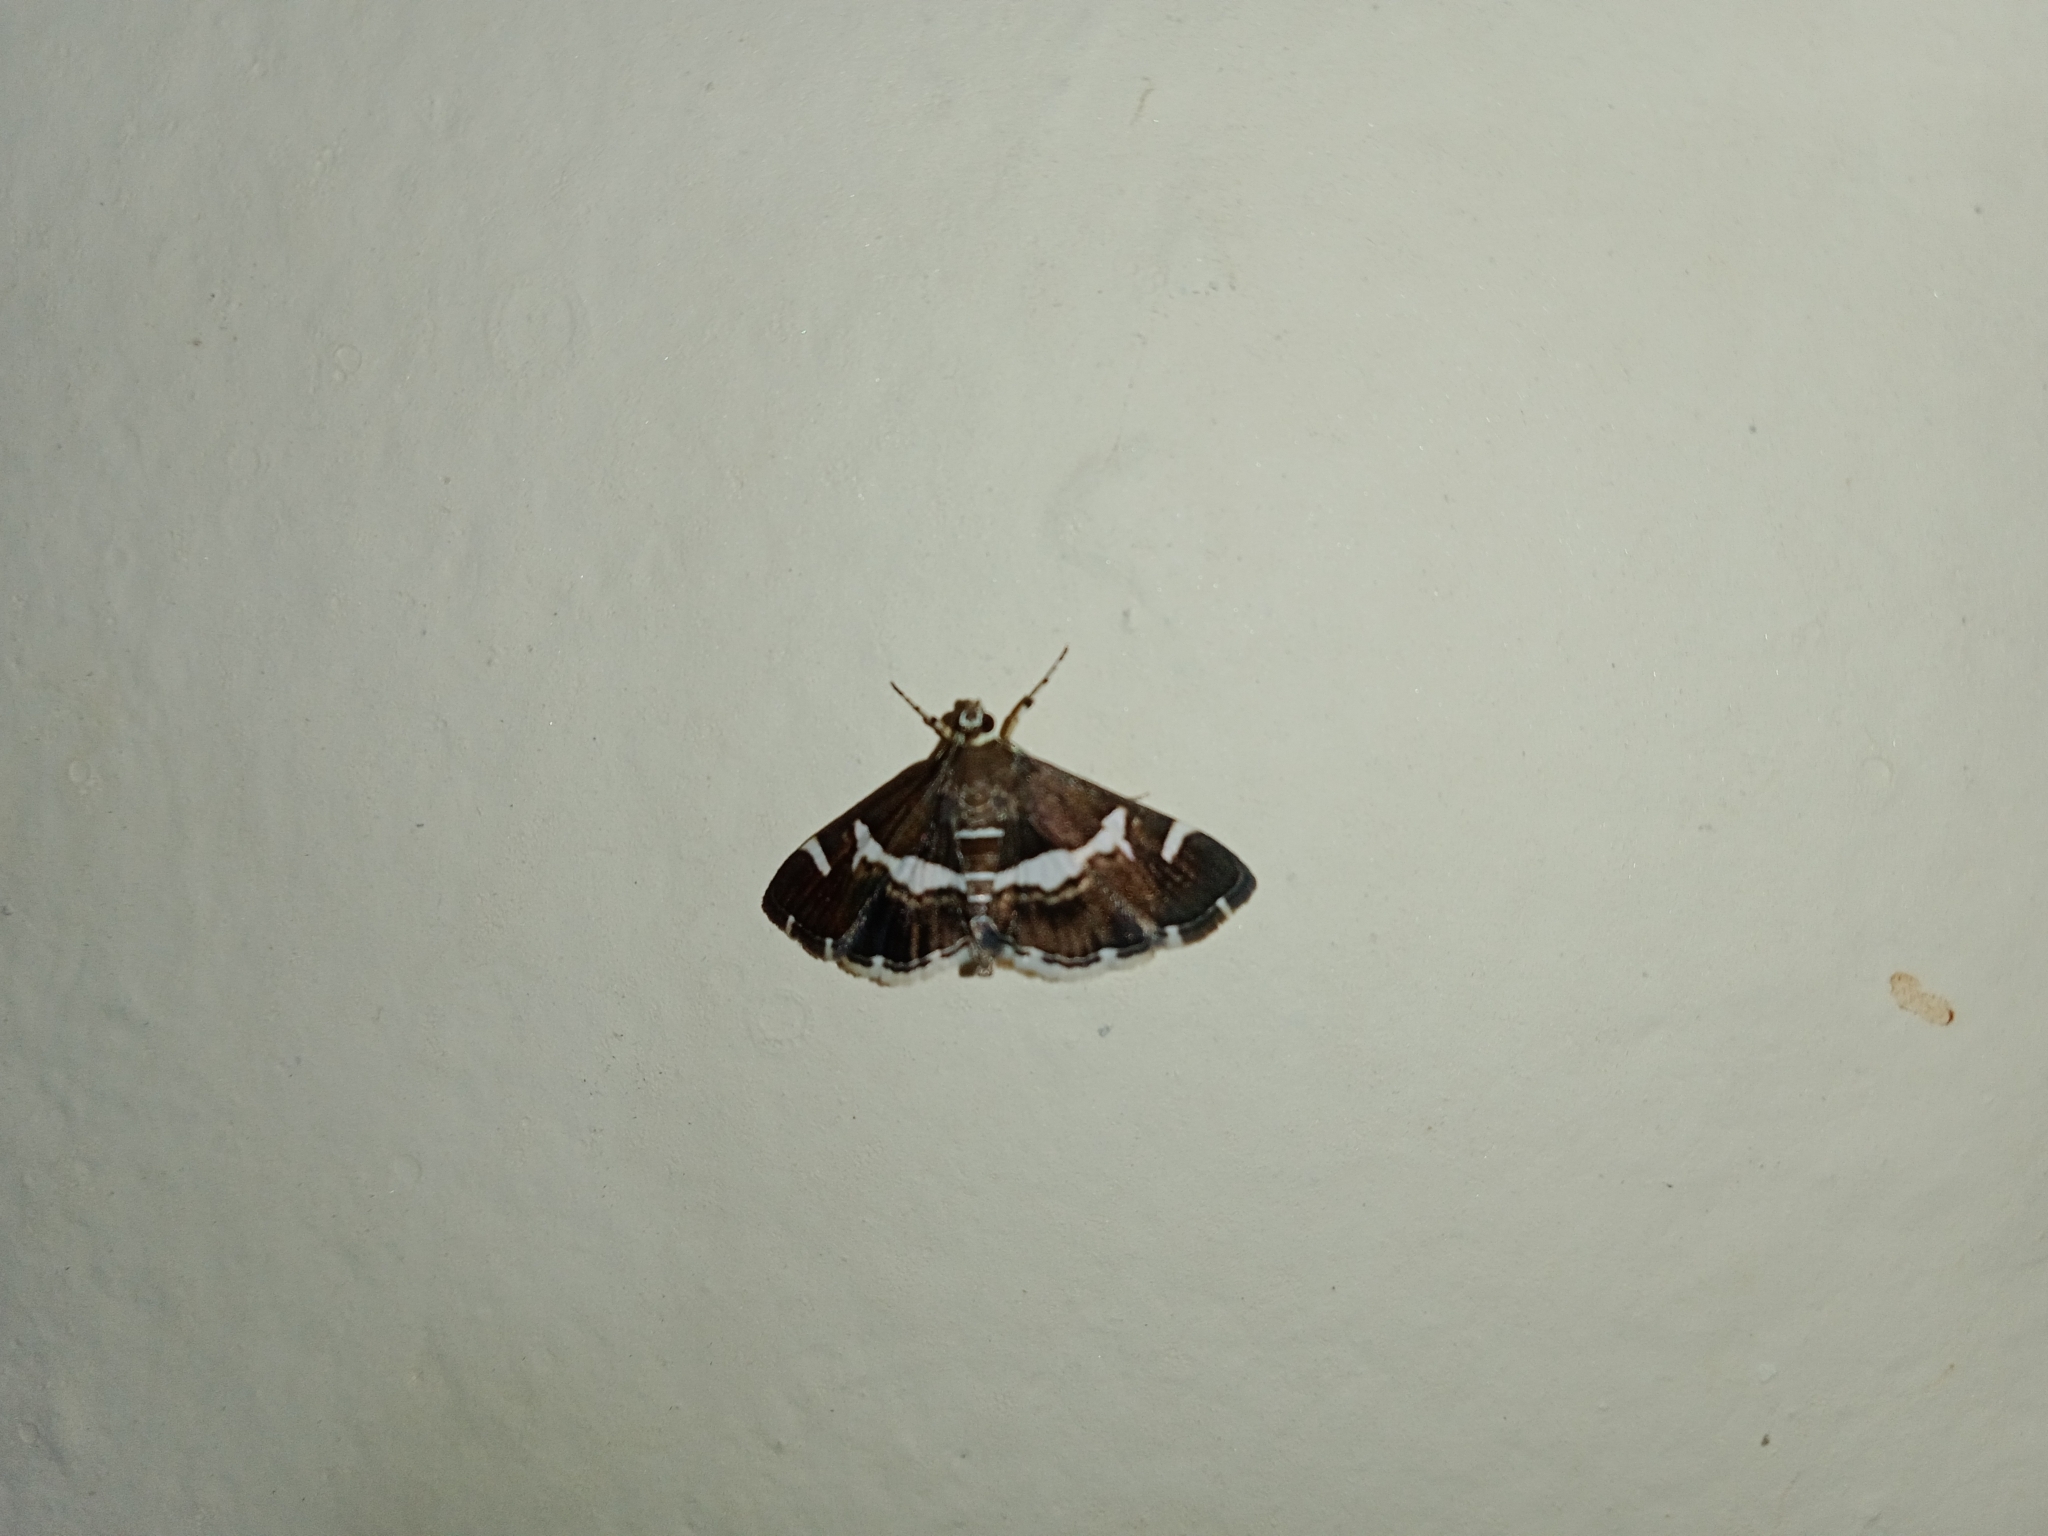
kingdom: Animalia
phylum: Arthropoda
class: Insecta
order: Lepidoptera
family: Crambidae
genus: Spoladea
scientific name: Spoladea recurvalis
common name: Beet webworm moth
